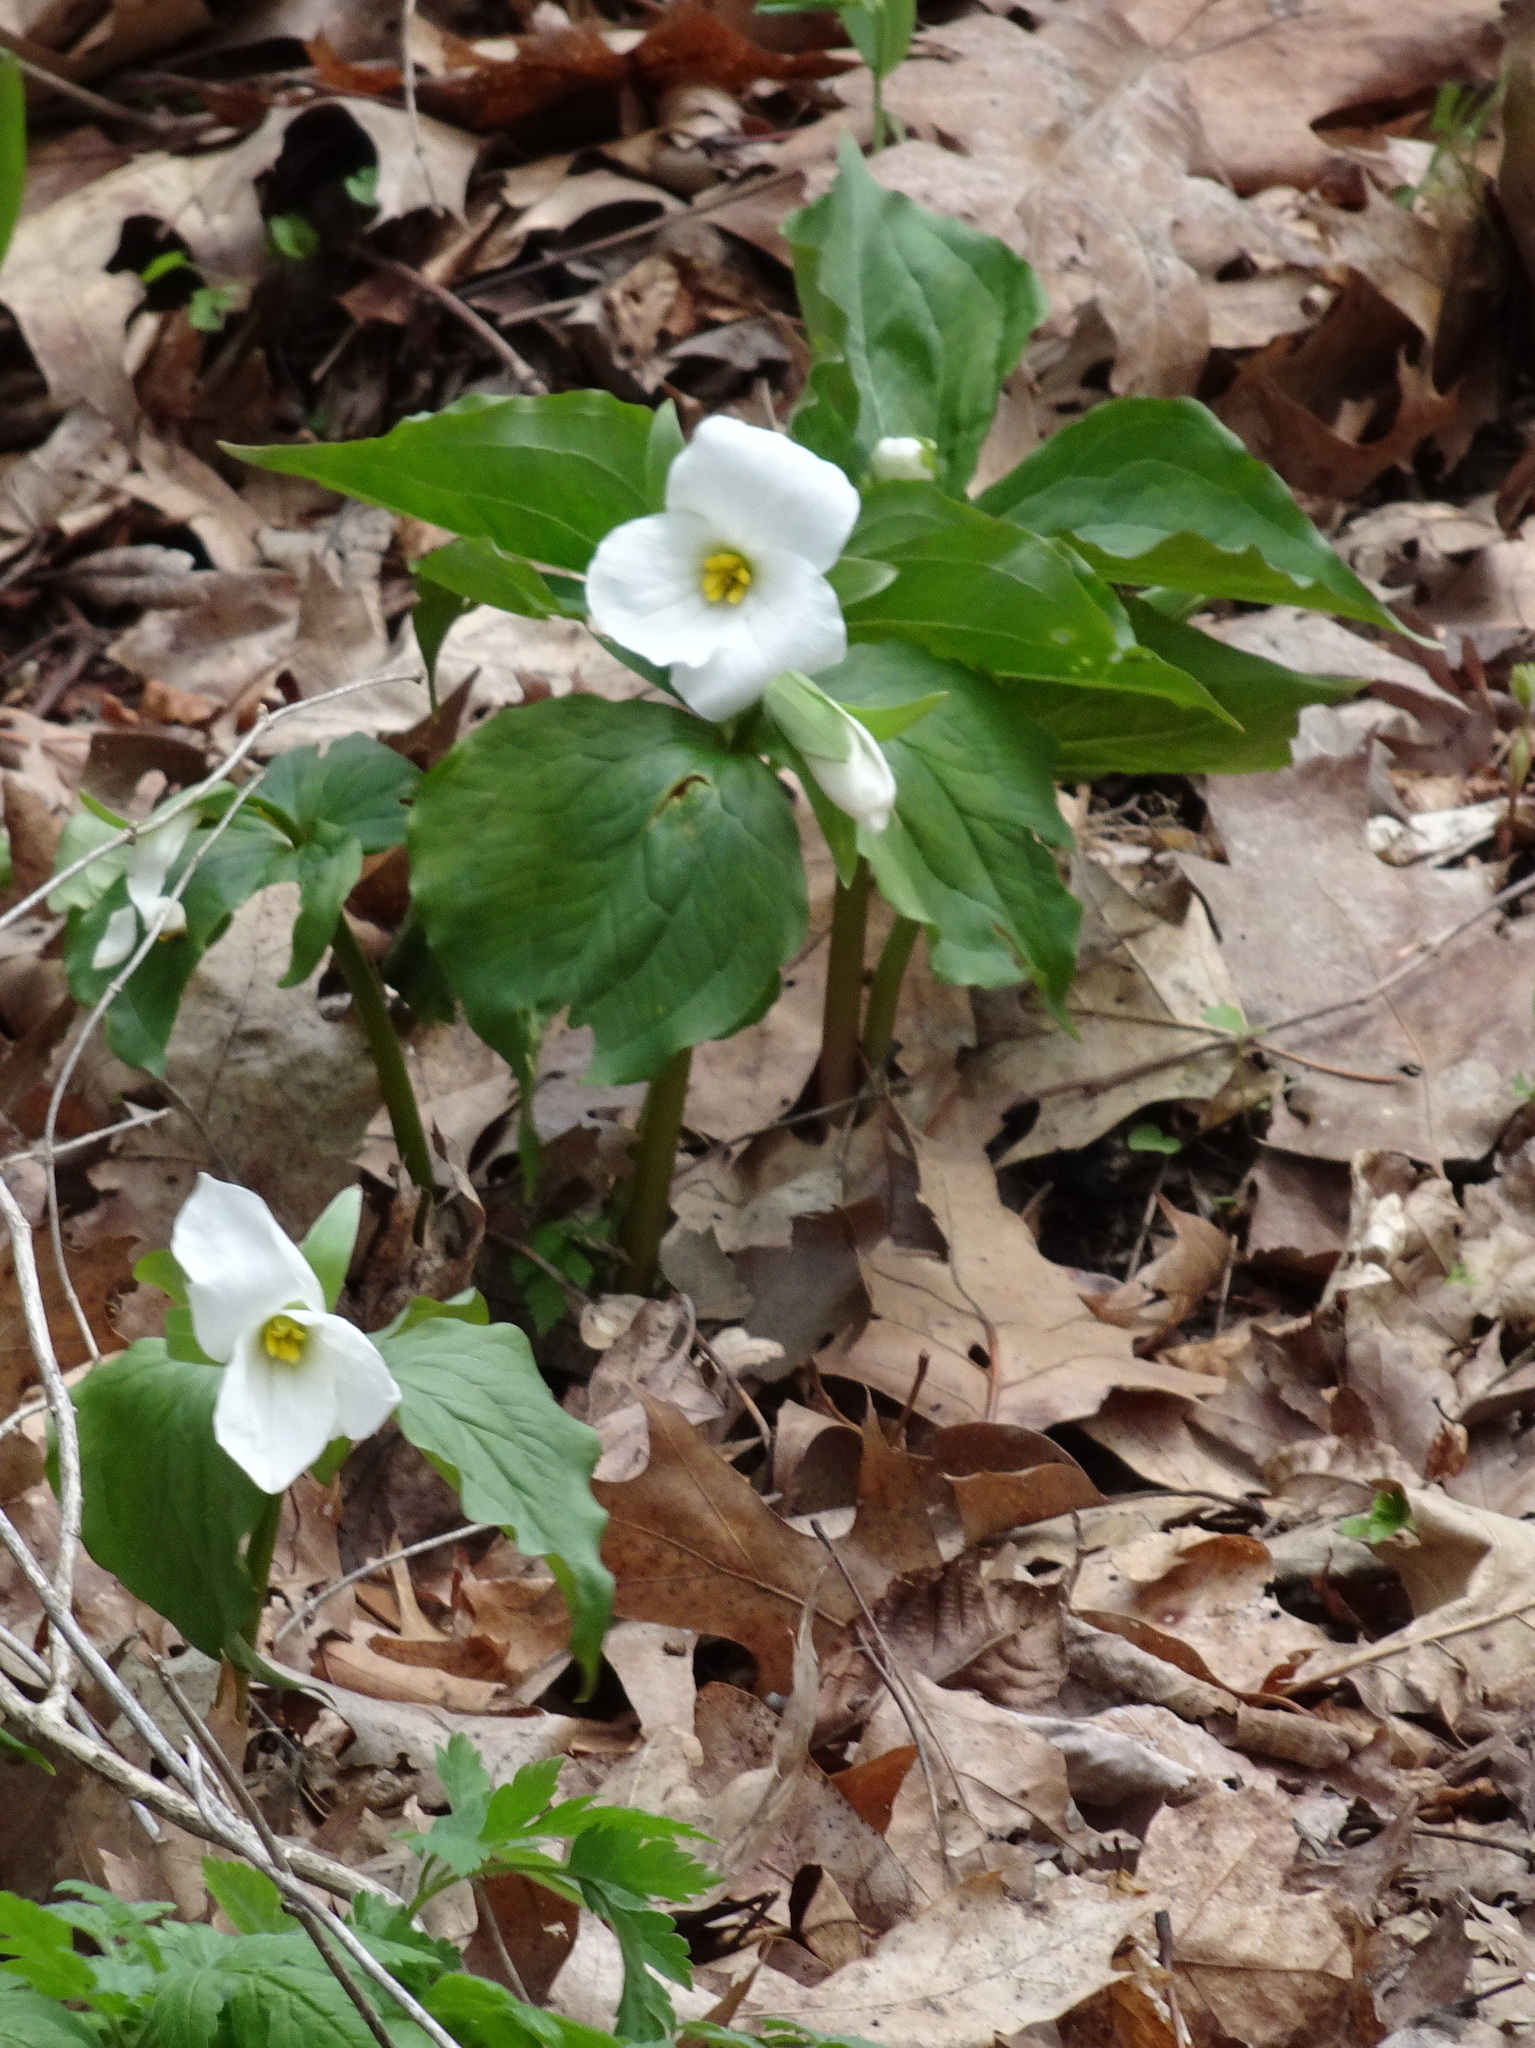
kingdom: Plantae
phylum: Tracheophyta
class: Liliopsida
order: Liliales
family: Melanthiaceae
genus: Trillium
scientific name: Trillium grandiflorum
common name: Great white trillium
